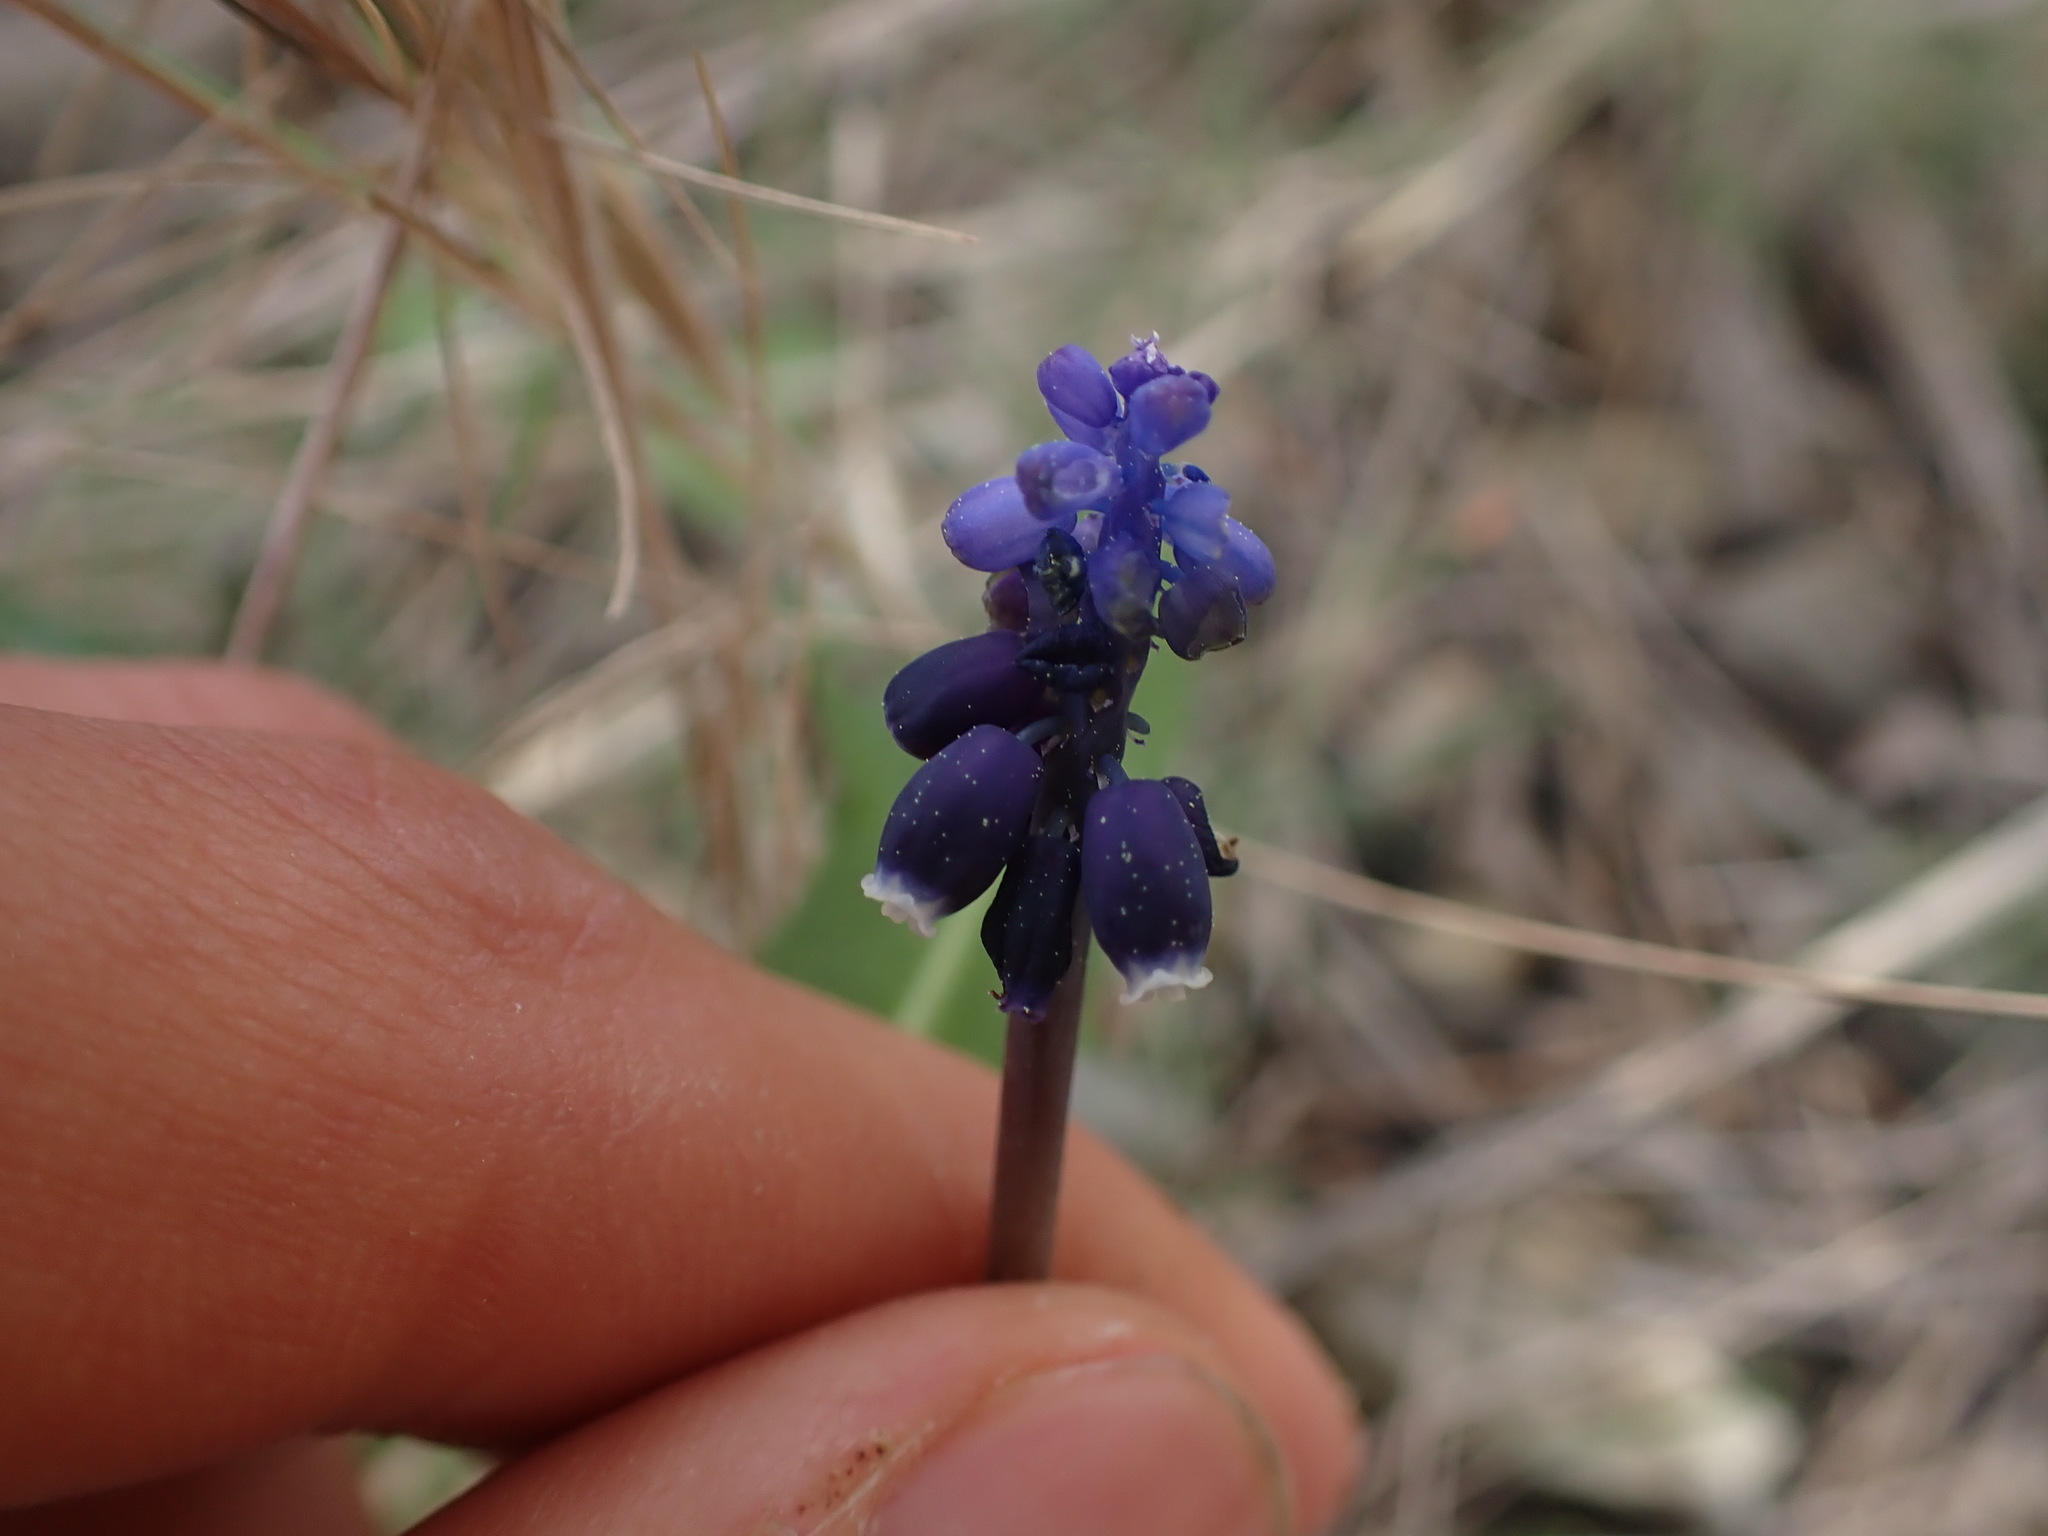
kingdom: Plantae
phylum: Tracheophyta
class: Liliopsida
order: Asparagales
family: Asparagaceae
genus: Muscari
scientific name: Muscari neglectum
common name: Grape-hyacinth
